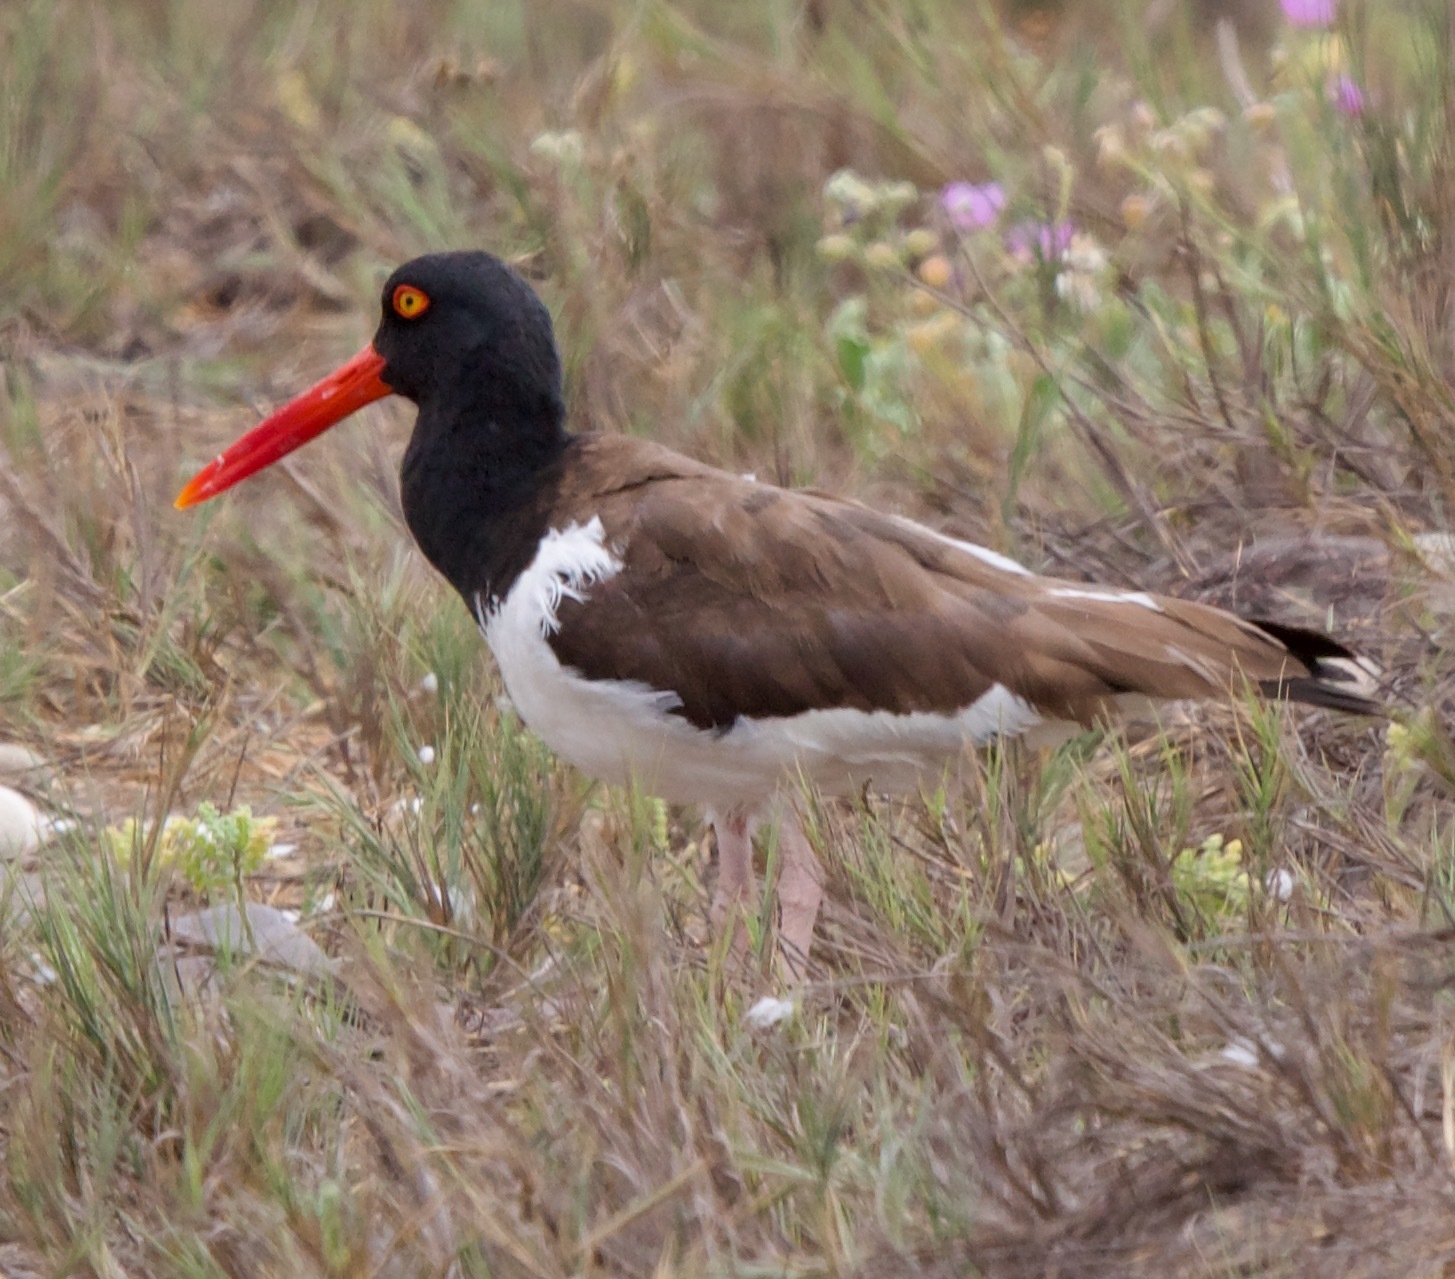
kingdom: Animalia
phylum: Chordata
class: Aves
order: Charadriiformes
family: Haematopodidae
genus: Haematopus
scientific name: Haematopus palliatus
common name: American oystercatcher
